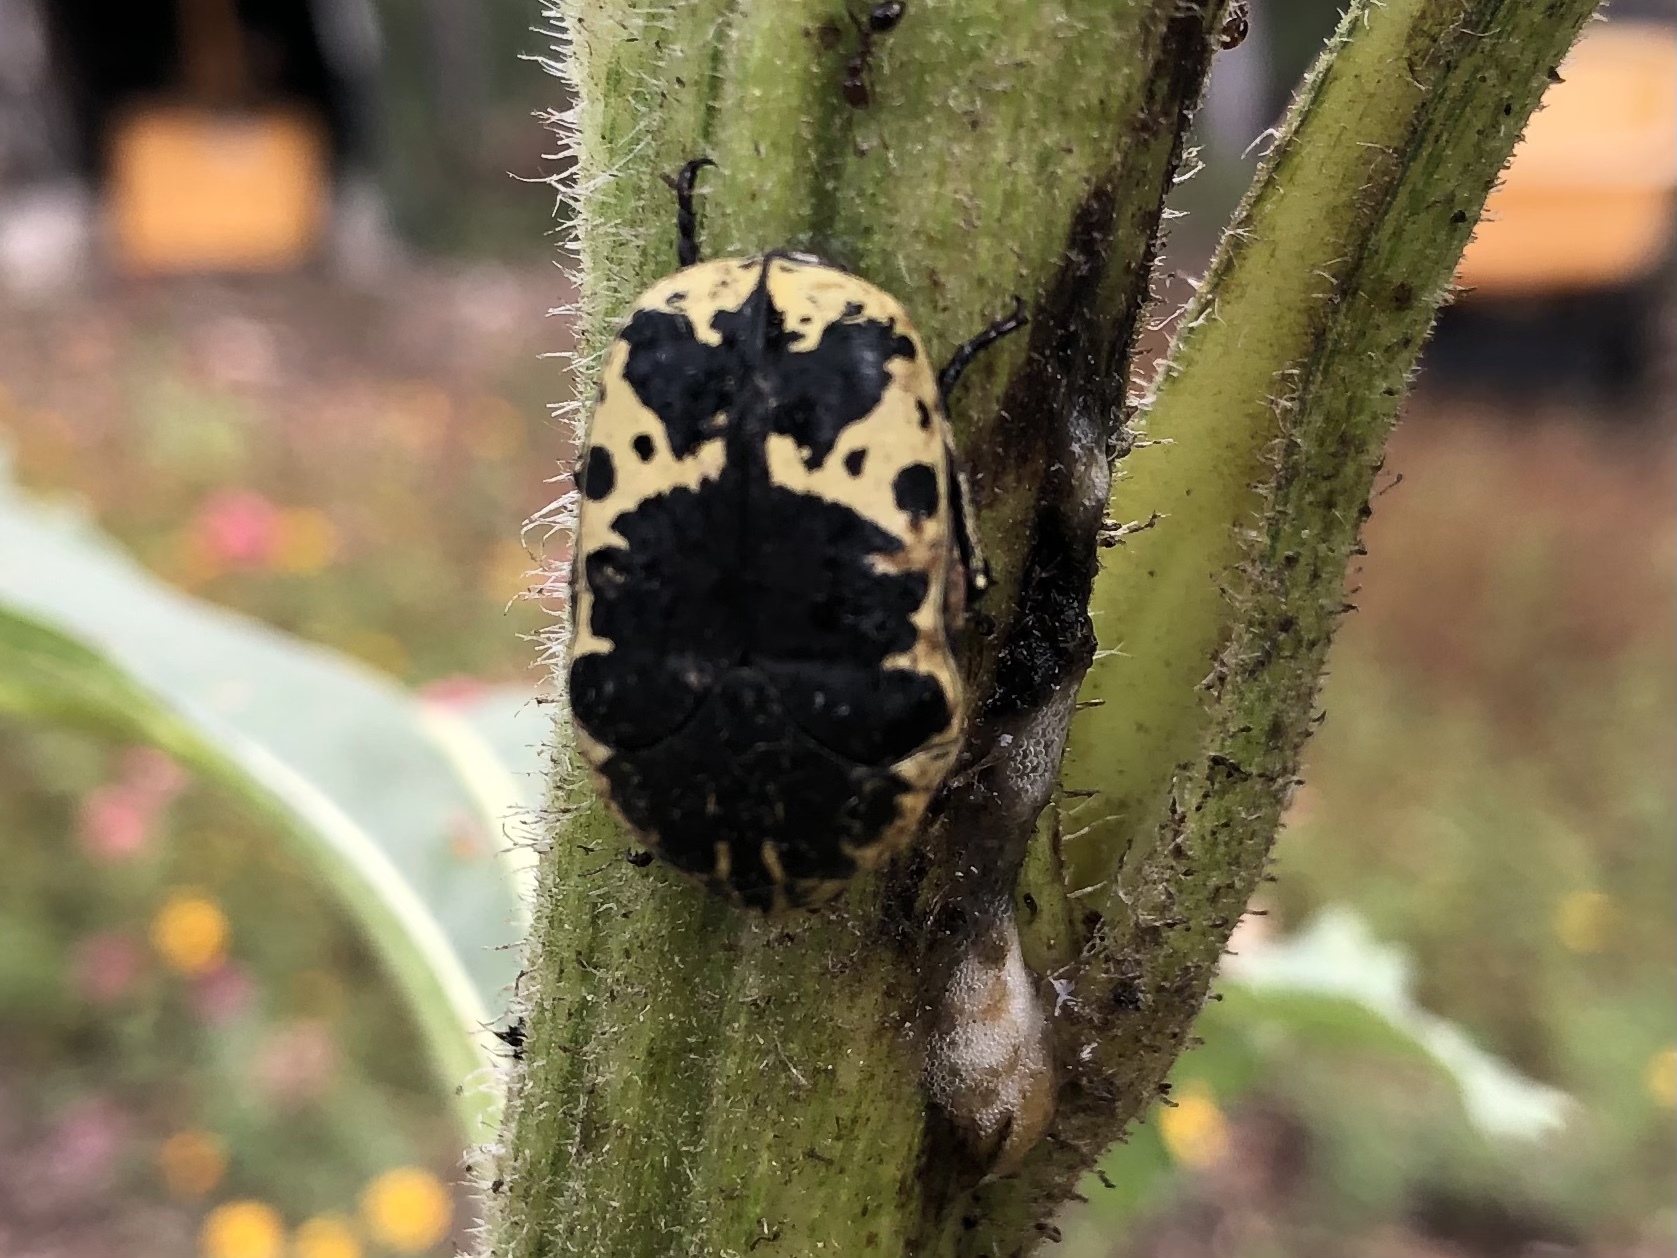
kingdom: Animalia
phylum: Arthropoda
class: Insecta
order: Coleoptera
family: Scarabaeidae
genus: Gymnetis
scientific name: Gymnetis thula
